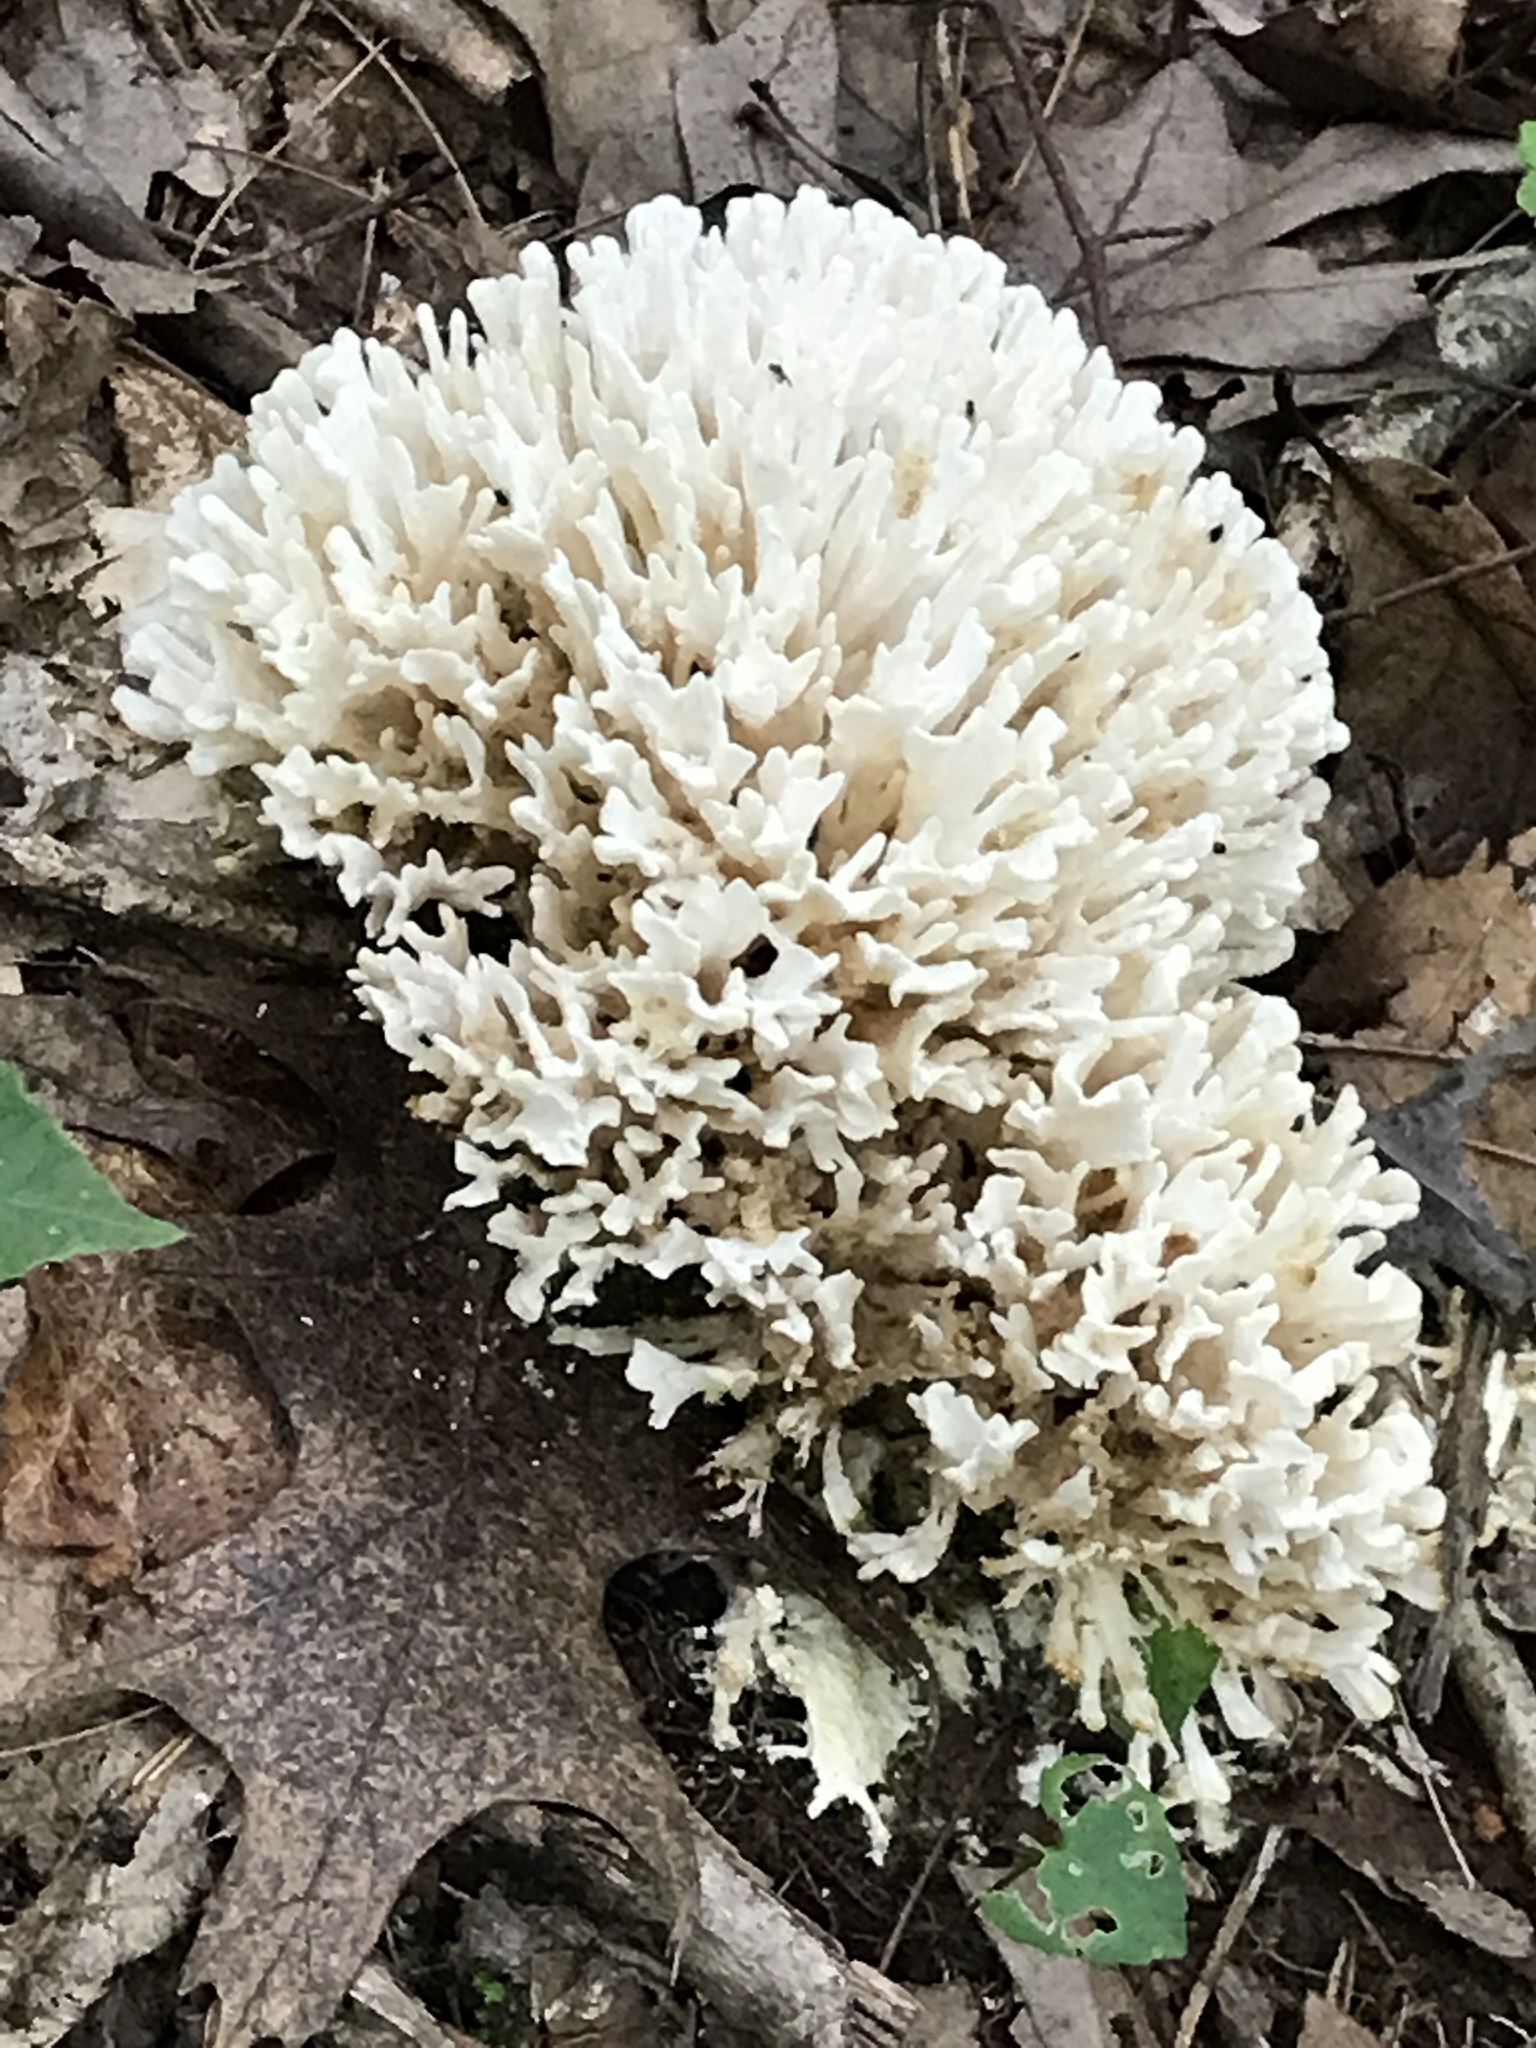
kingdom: Fungi
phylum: Basidiomycota
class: Agaricomycetes
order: Sebacinales
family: Sebacinaceae
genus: Sebacina
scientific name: Sebacina schweinitzii
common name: Jellied false coral fungus
